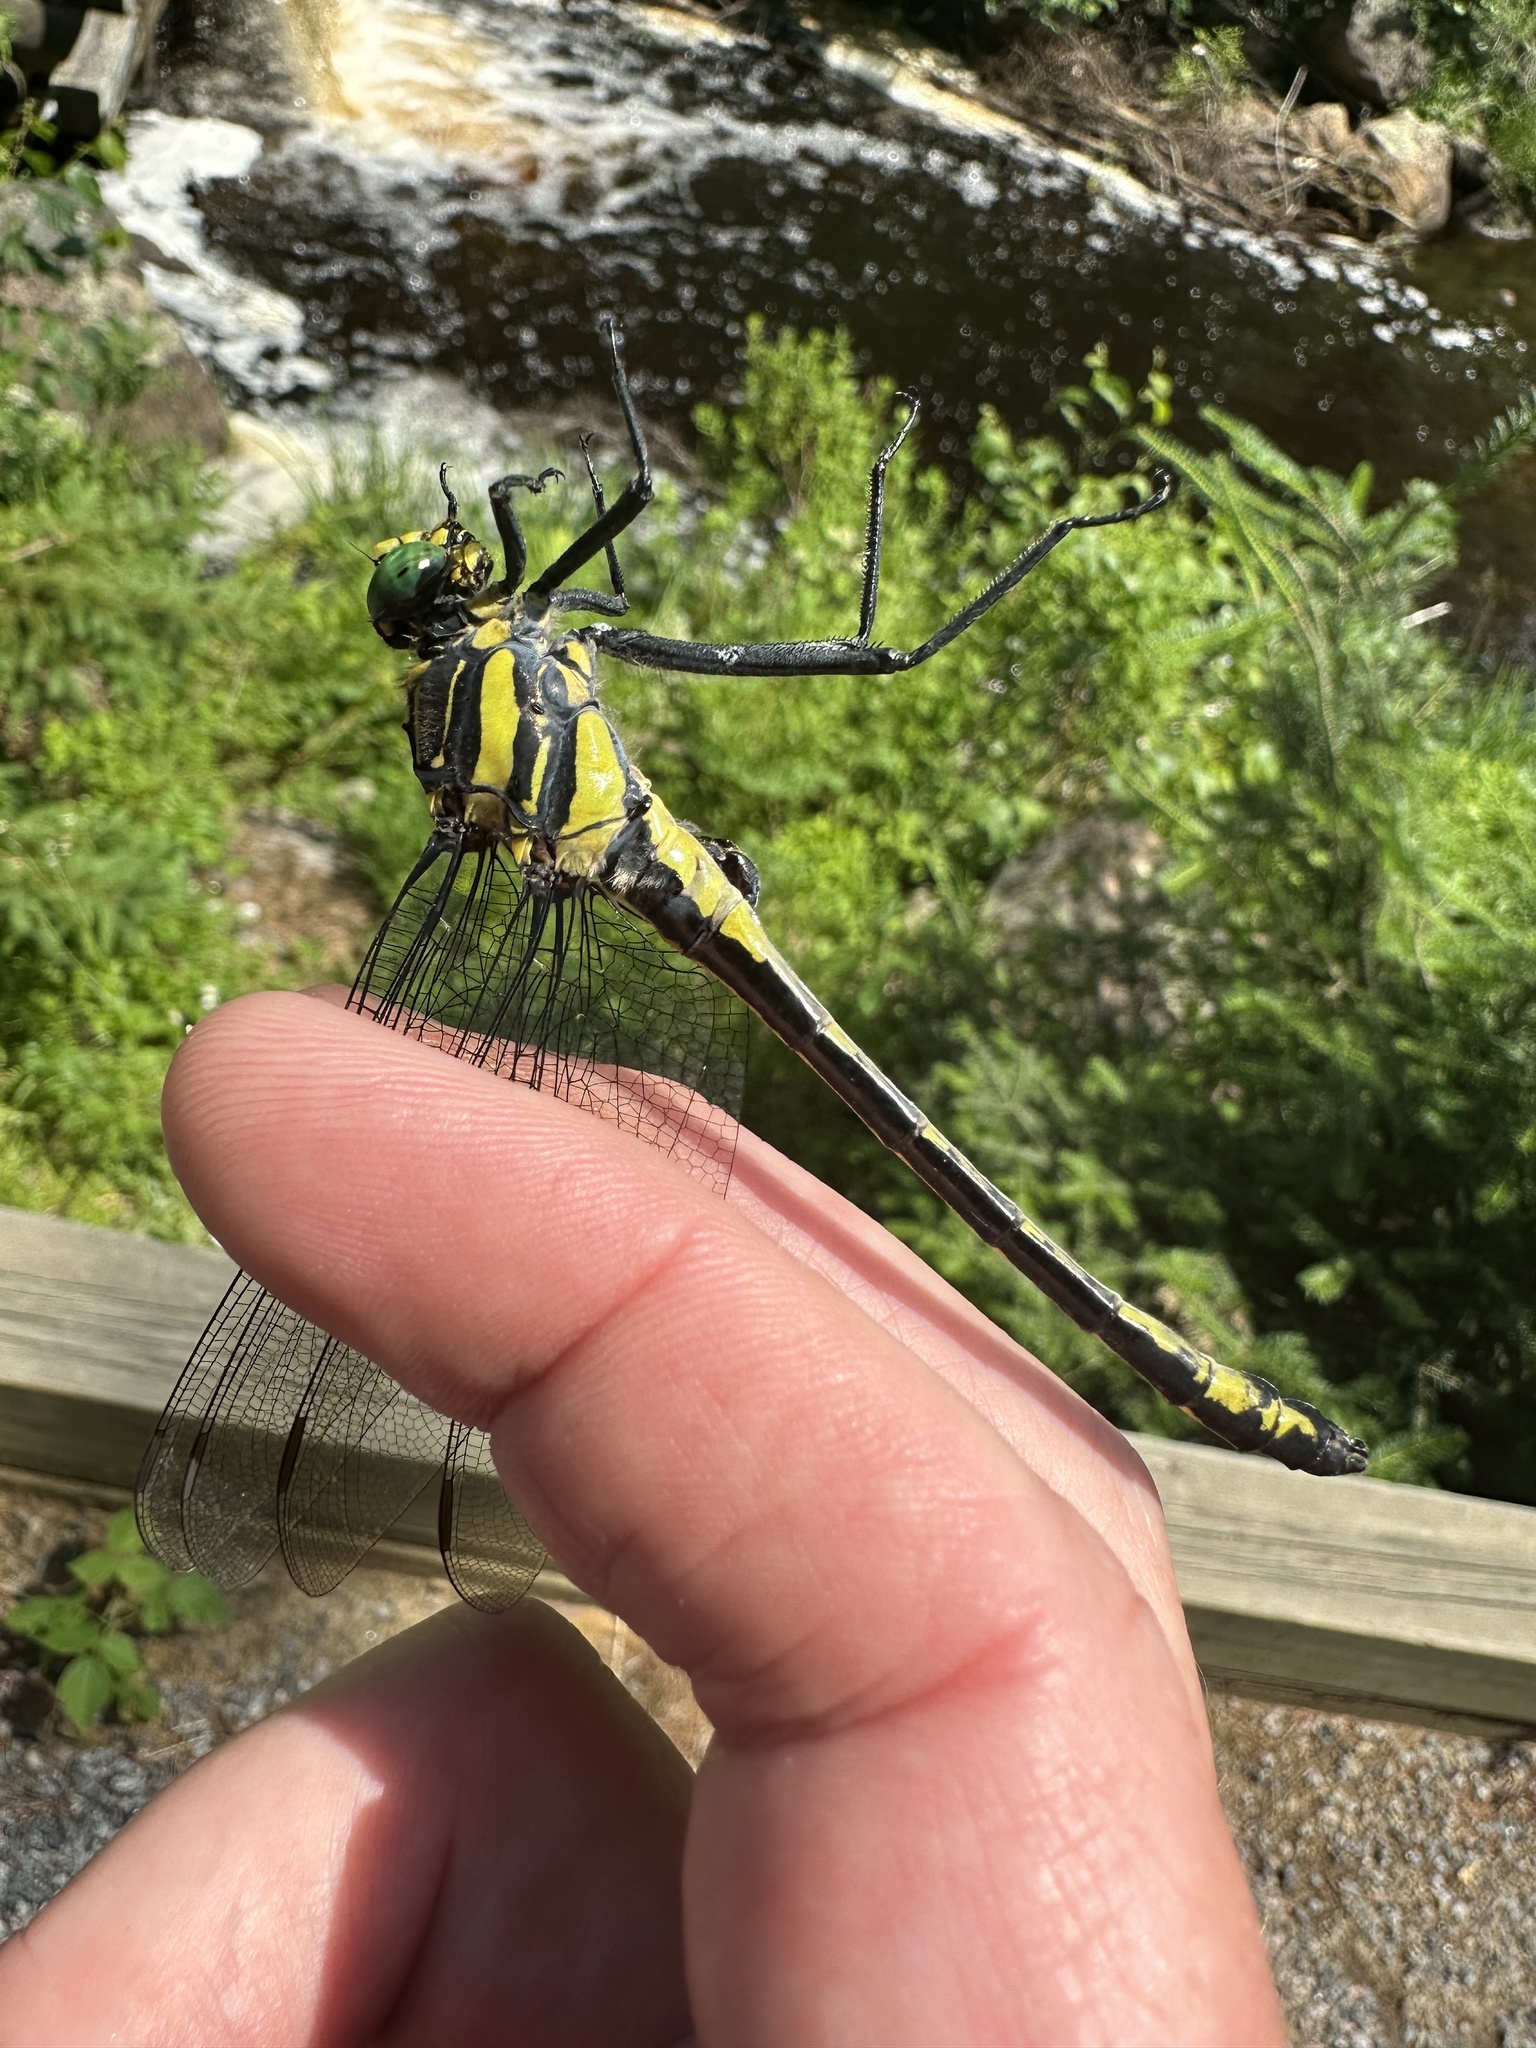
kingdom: Animalia
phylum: Arthropoda
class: Insecta
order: Odonata
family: Gomphidae
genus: Hagenius
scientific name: Hagenius brevistylus
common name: Dragonhunter
